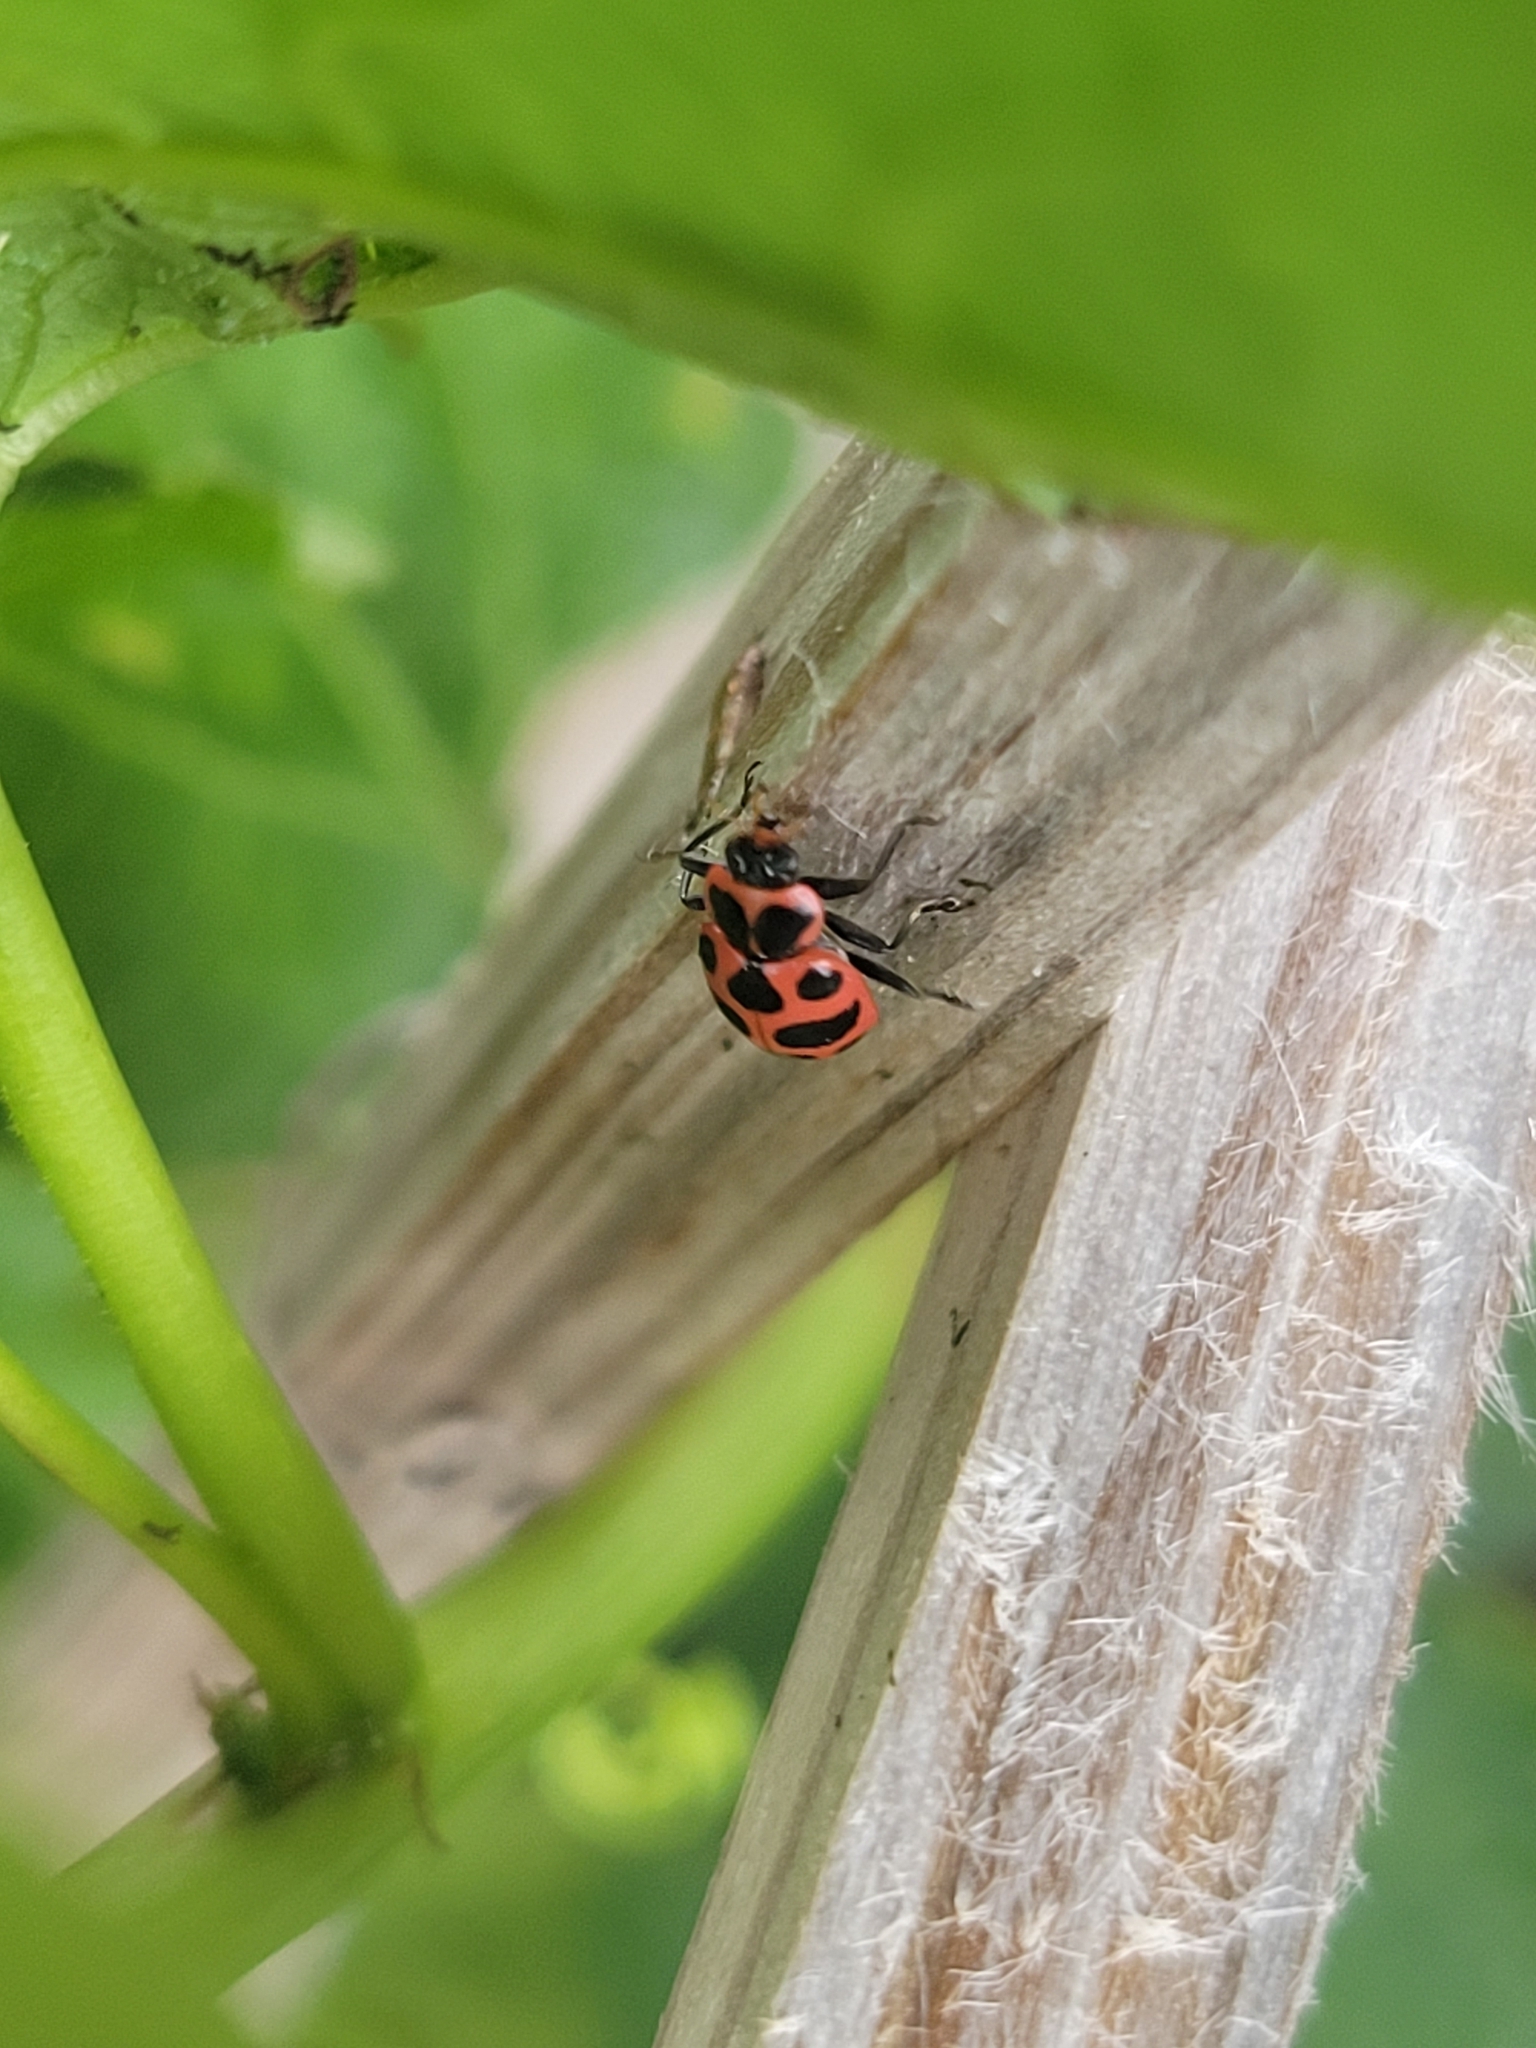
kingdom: Animalia
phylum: Arthropoda
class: Insecta
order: Coleoptera
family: Coccinellidae
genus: Coleomegilla
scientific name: Coleomegilla maculata
